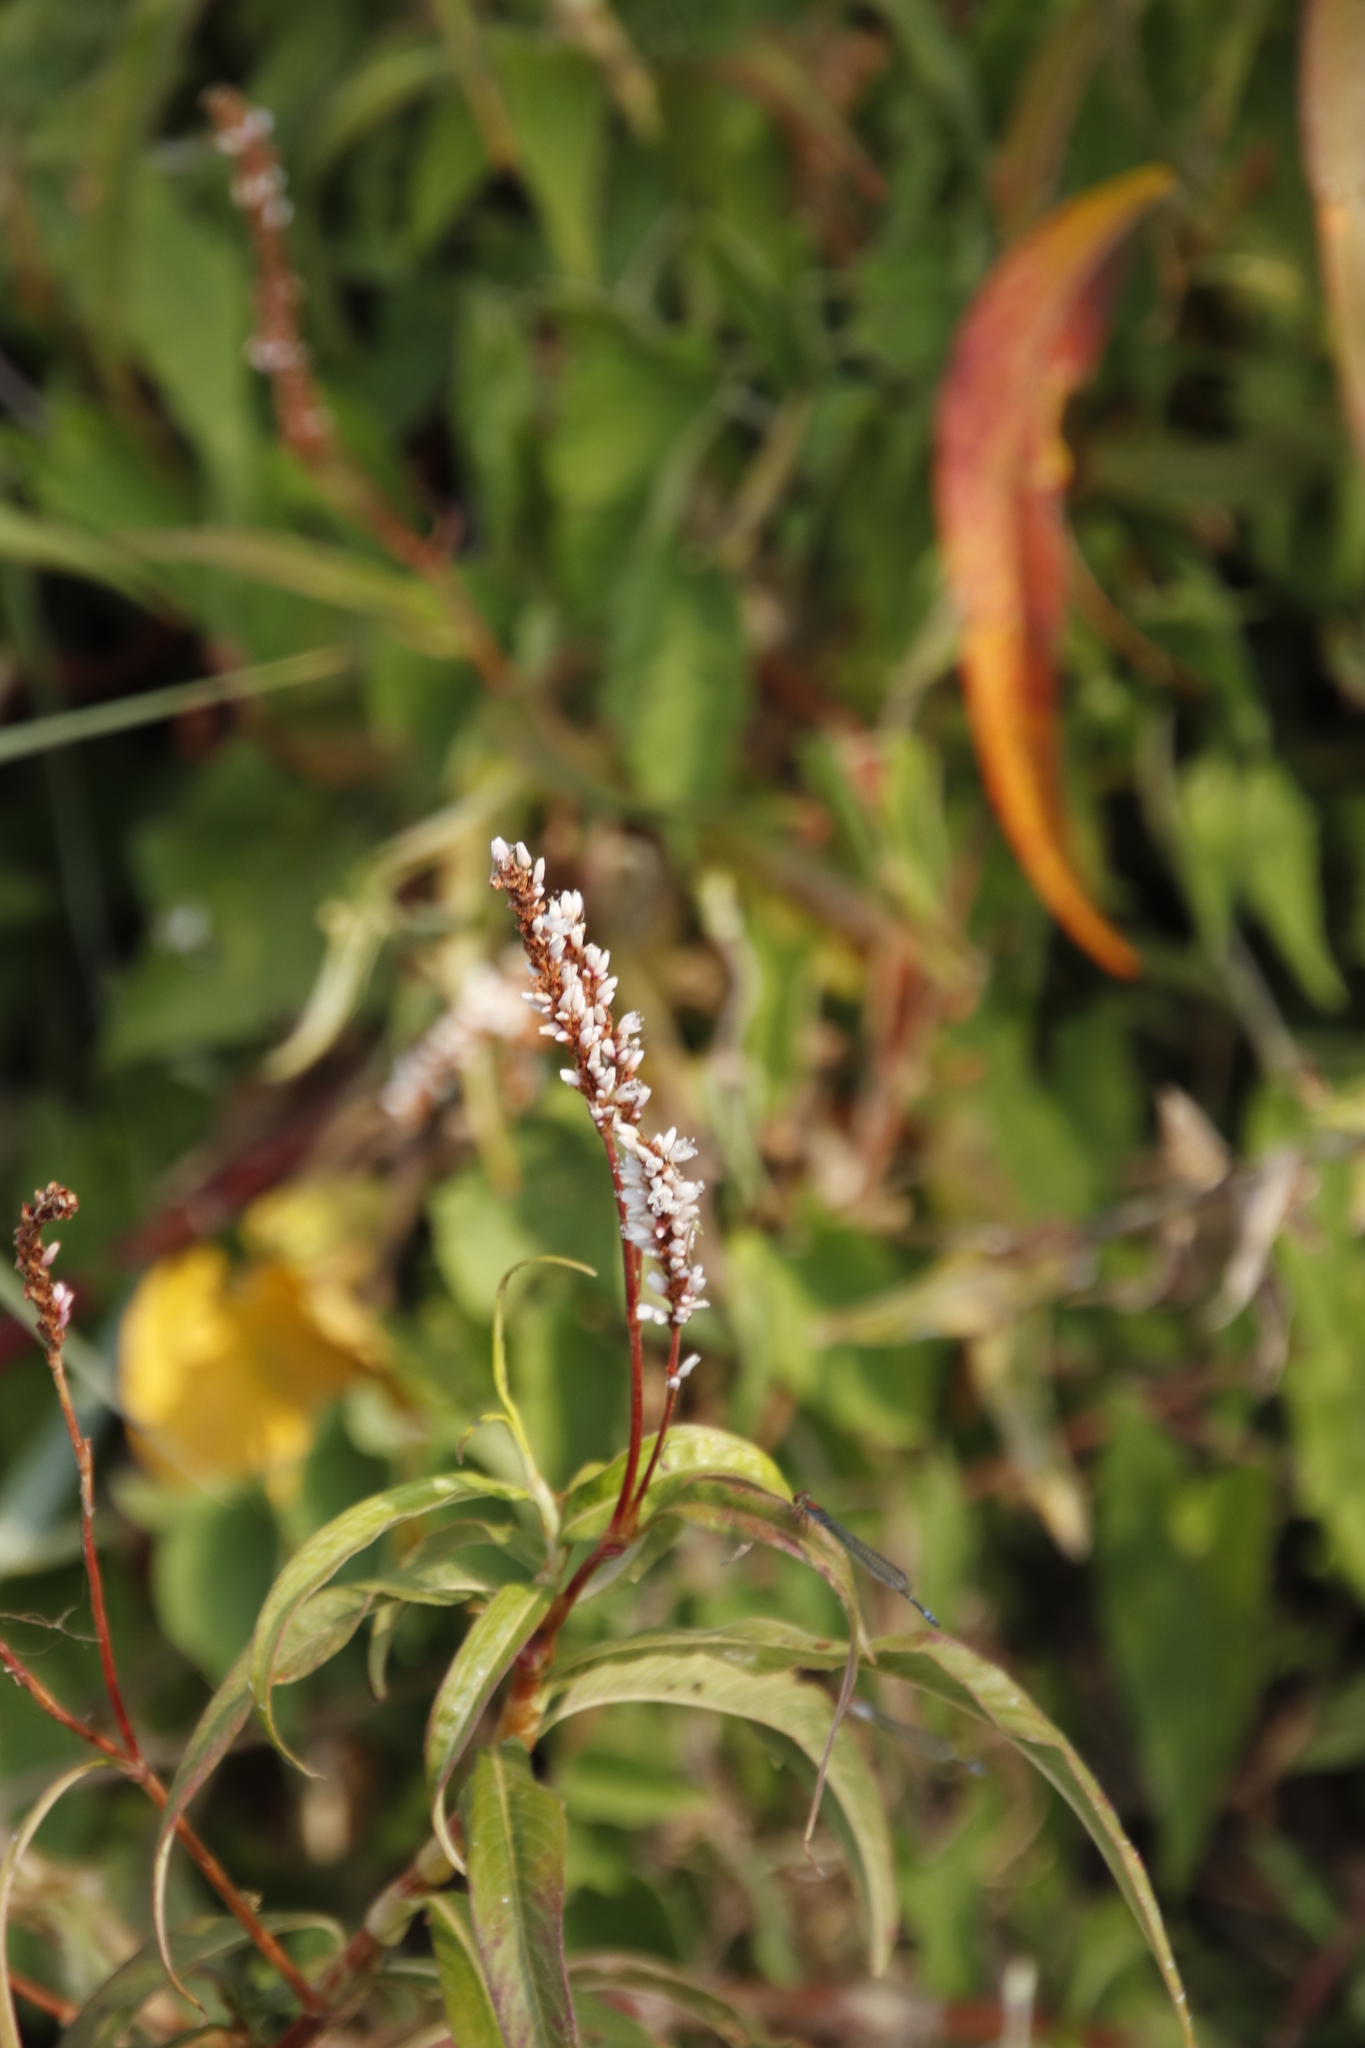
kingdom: Plantae
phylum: Tracheophyta
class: Magnoliopsida
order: Caryophyllales
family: Polygonaceae
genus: Persicaria
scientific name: Persicaria senegalensis
